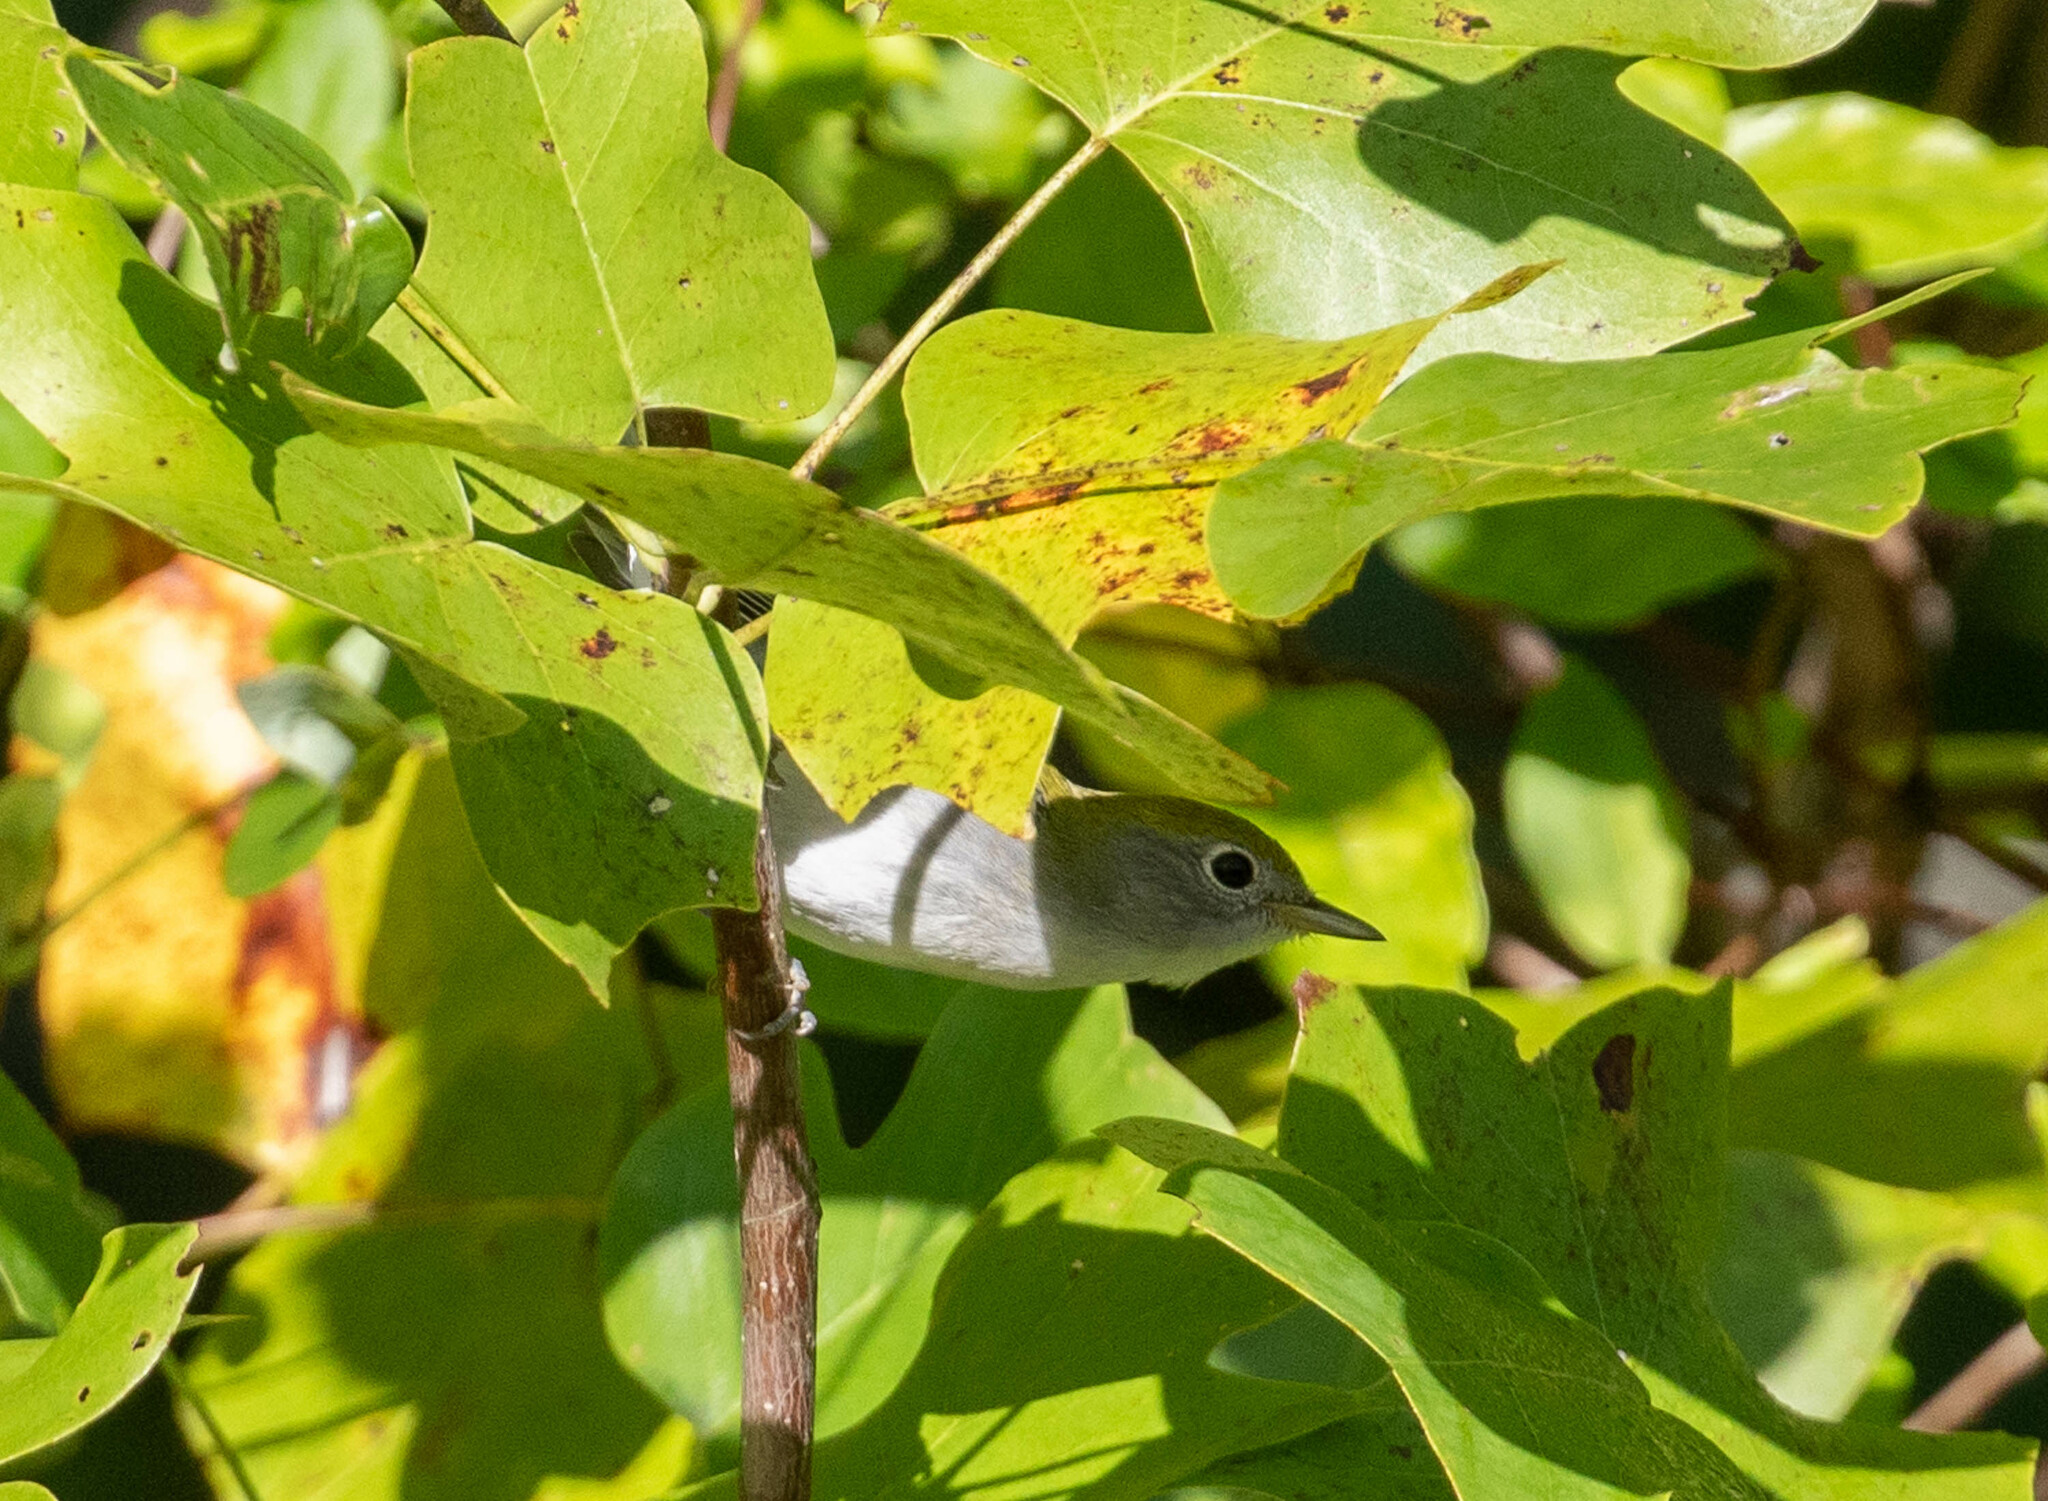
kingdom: Animalia
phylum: Chordata
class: Aves
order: Passeriformes
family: Parulidae
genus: Setophaga
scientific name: Setophaga pensylvanica
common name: Chestnut-sided warbler
